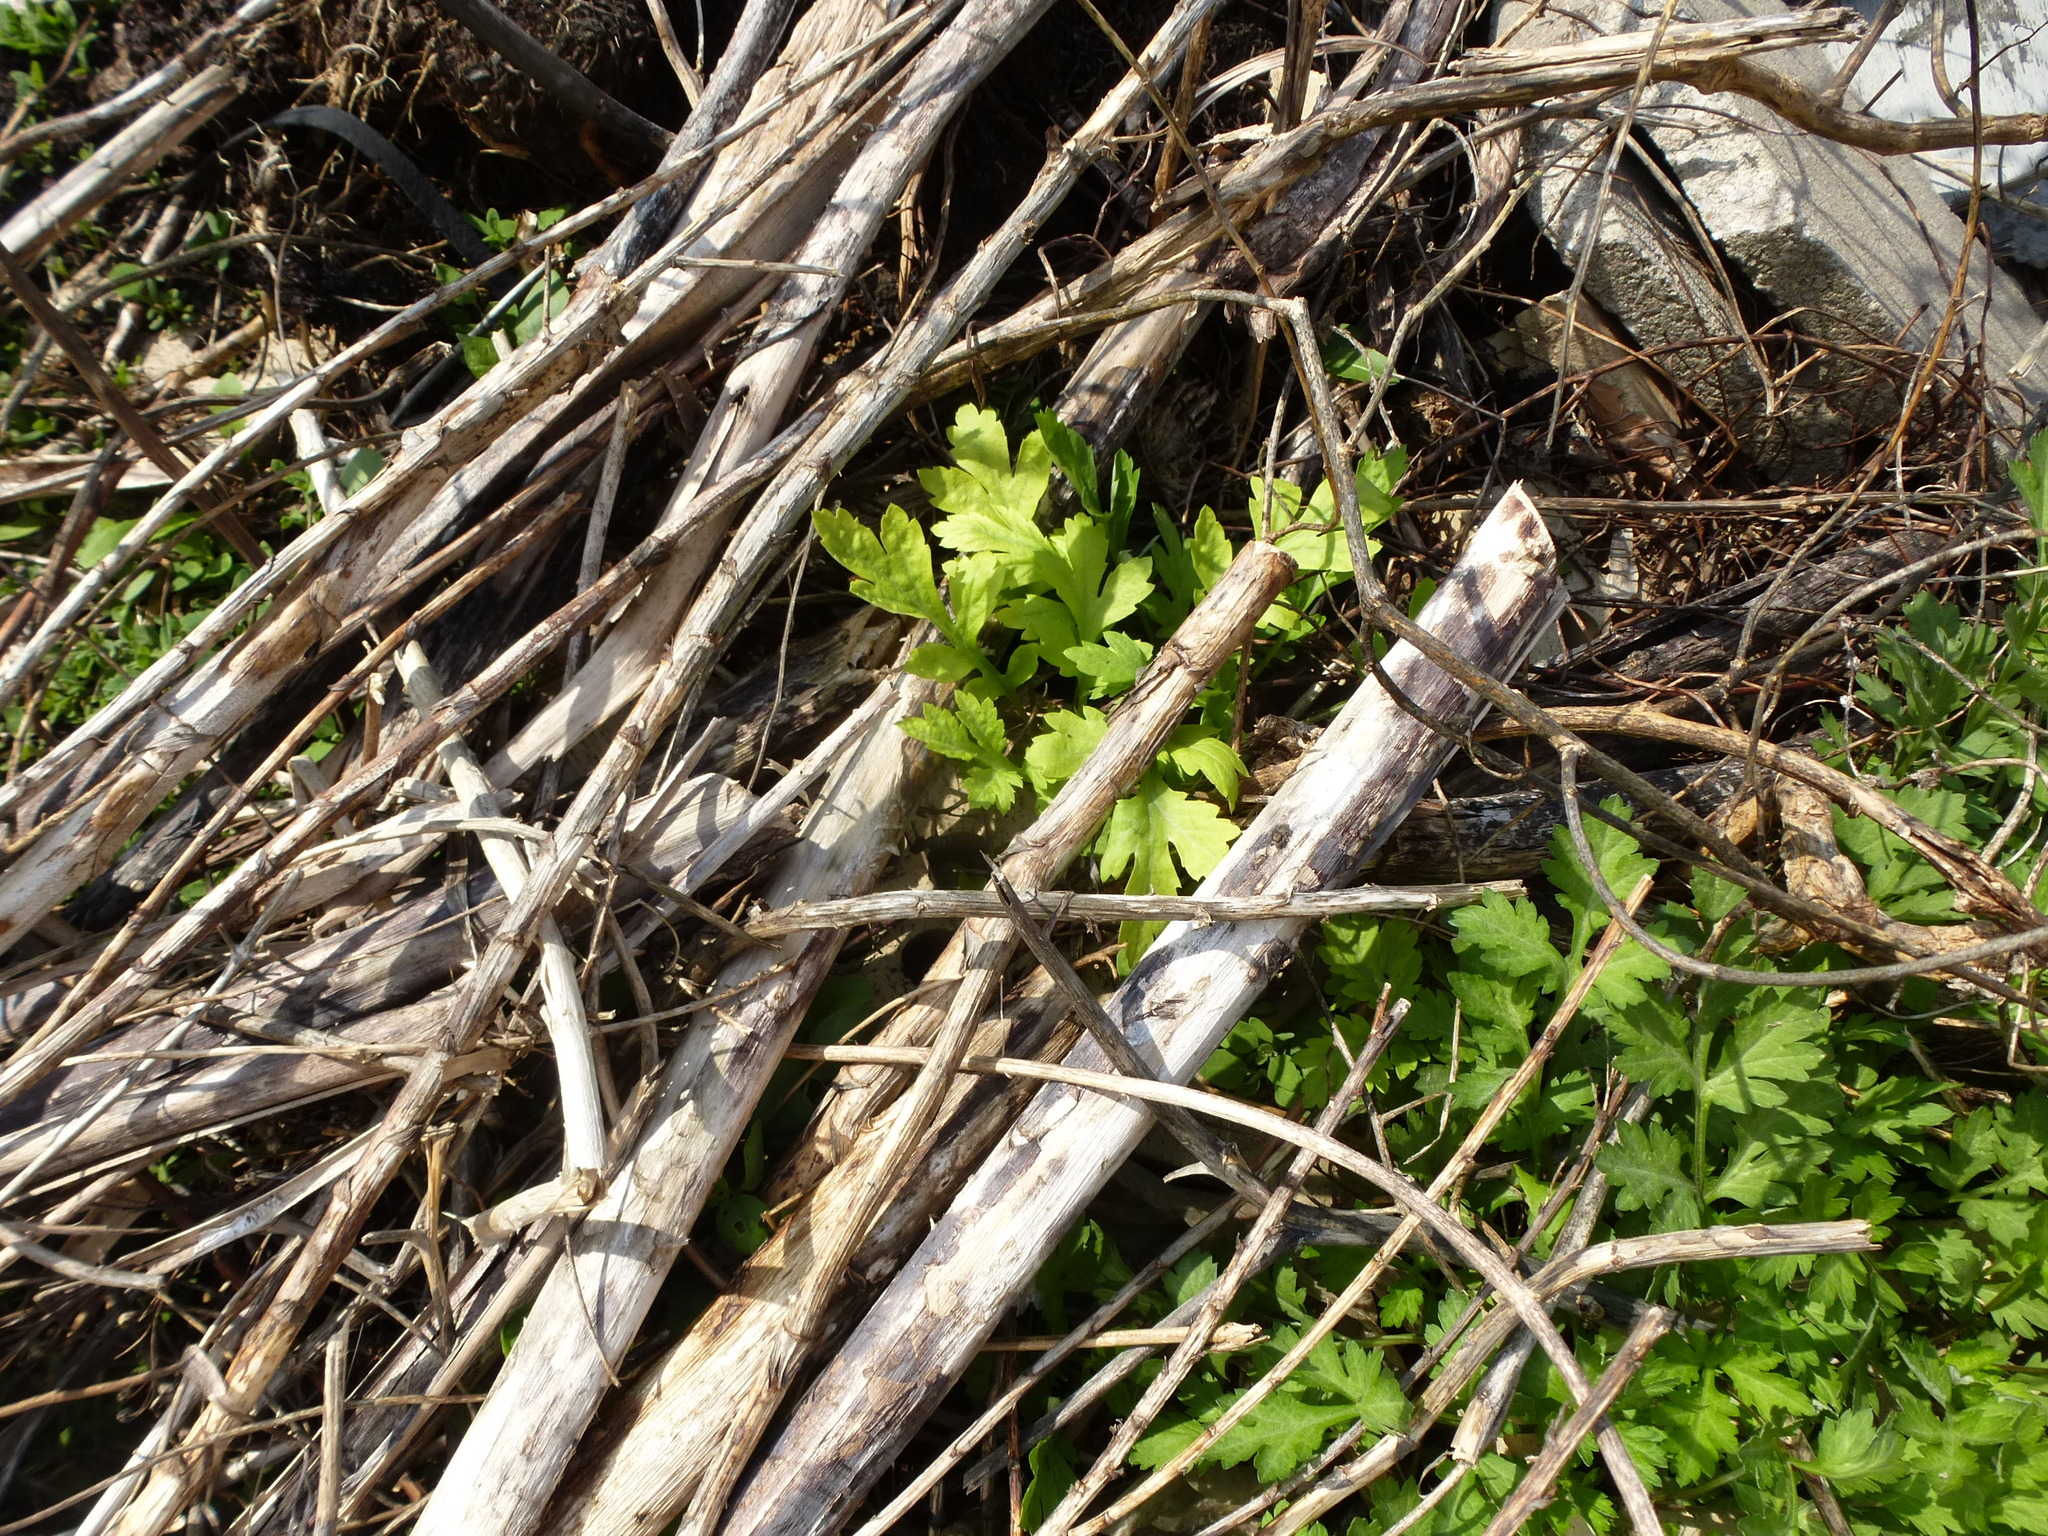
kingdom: Plantae
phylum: Tracheophyta
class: Magnoliopsida
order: Asterales
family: Asteraceae
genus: Artemisia
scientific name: Artemisia vulgaris
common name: Mugwort
